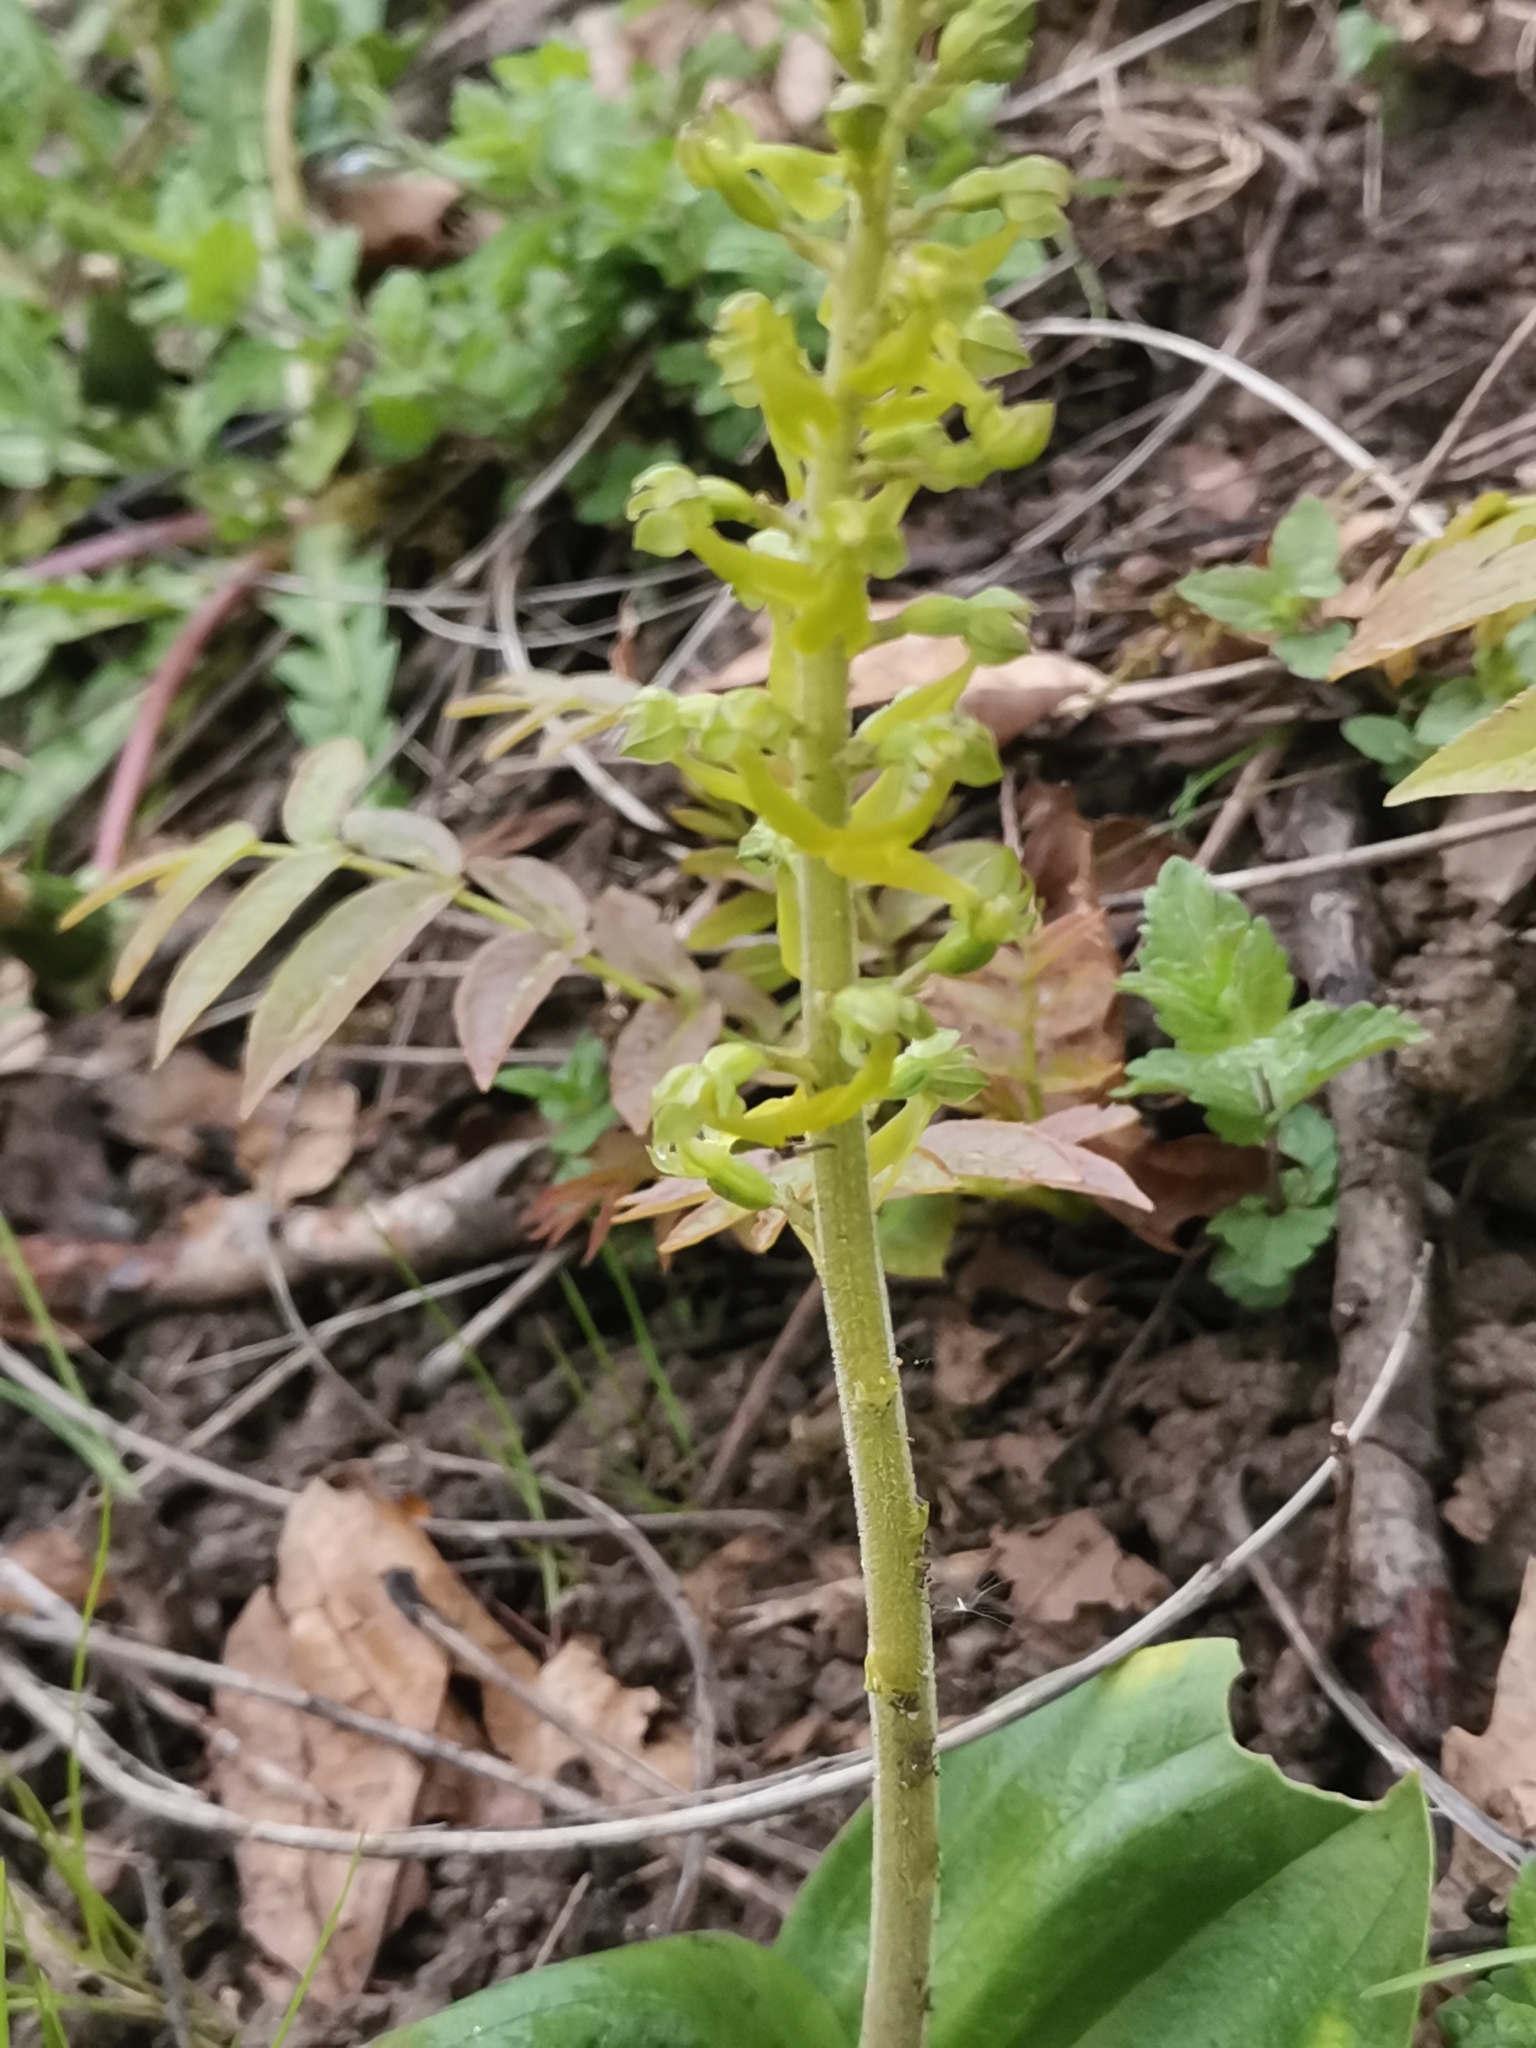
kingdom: Plantae
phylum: Tracheophyta
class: Liliopsida
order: Asparagales
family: Orchidaceae
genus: Neottia
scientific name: Neottia ovata
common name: Common twayblade
